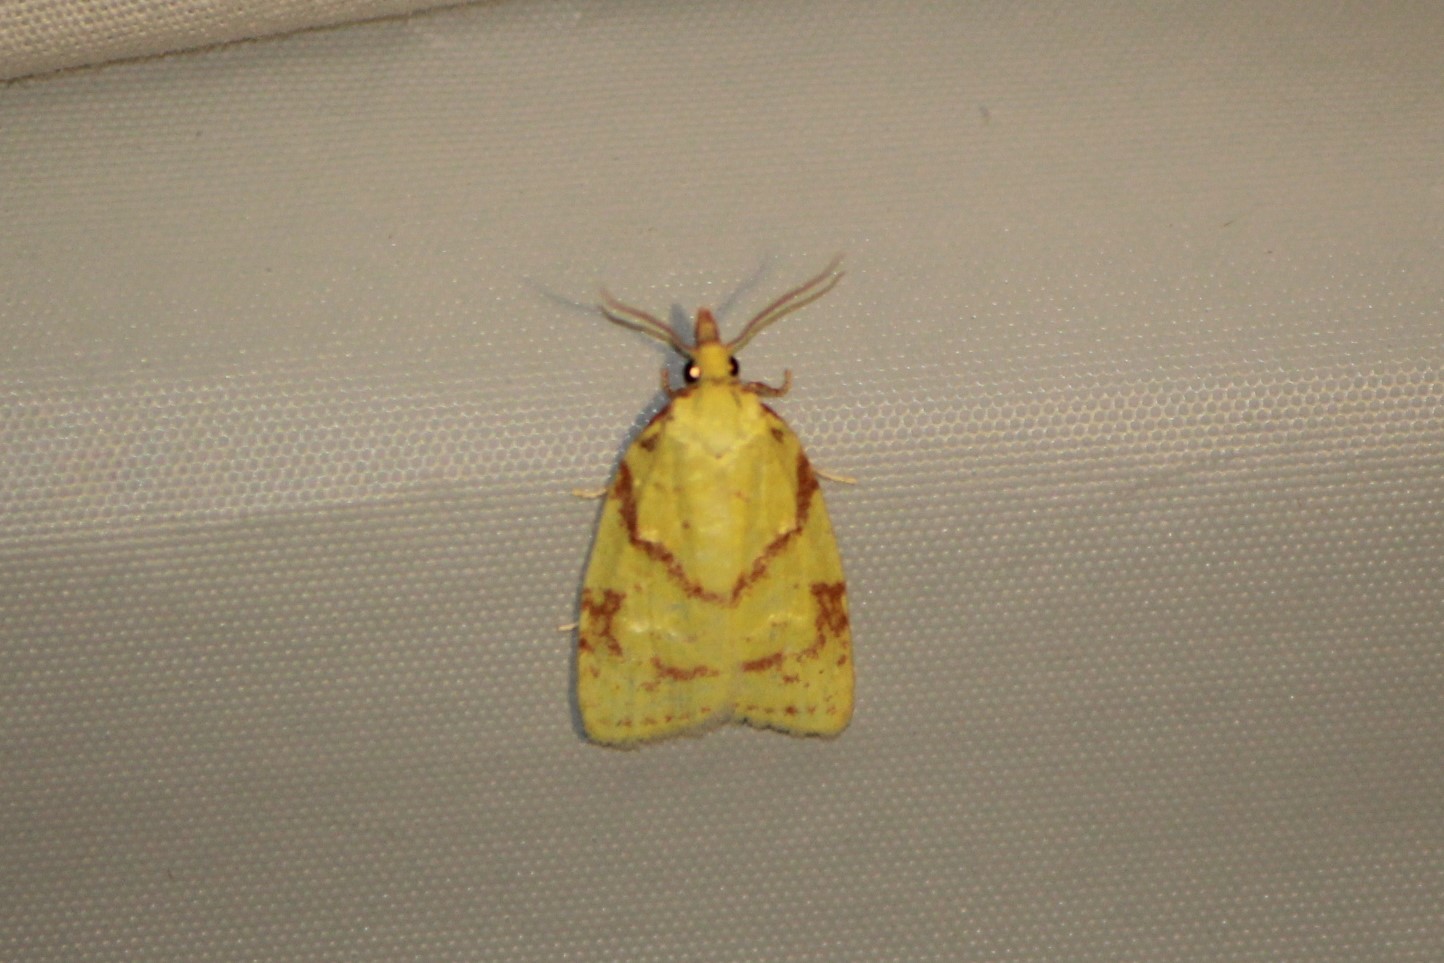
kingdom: Animalia
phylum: Arthropoda
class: Insecta
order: Lepidoptera
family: Tortricidae
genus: Cenopis
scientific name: Cenopis pettitana
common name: Maple-basswood leafroller moth
